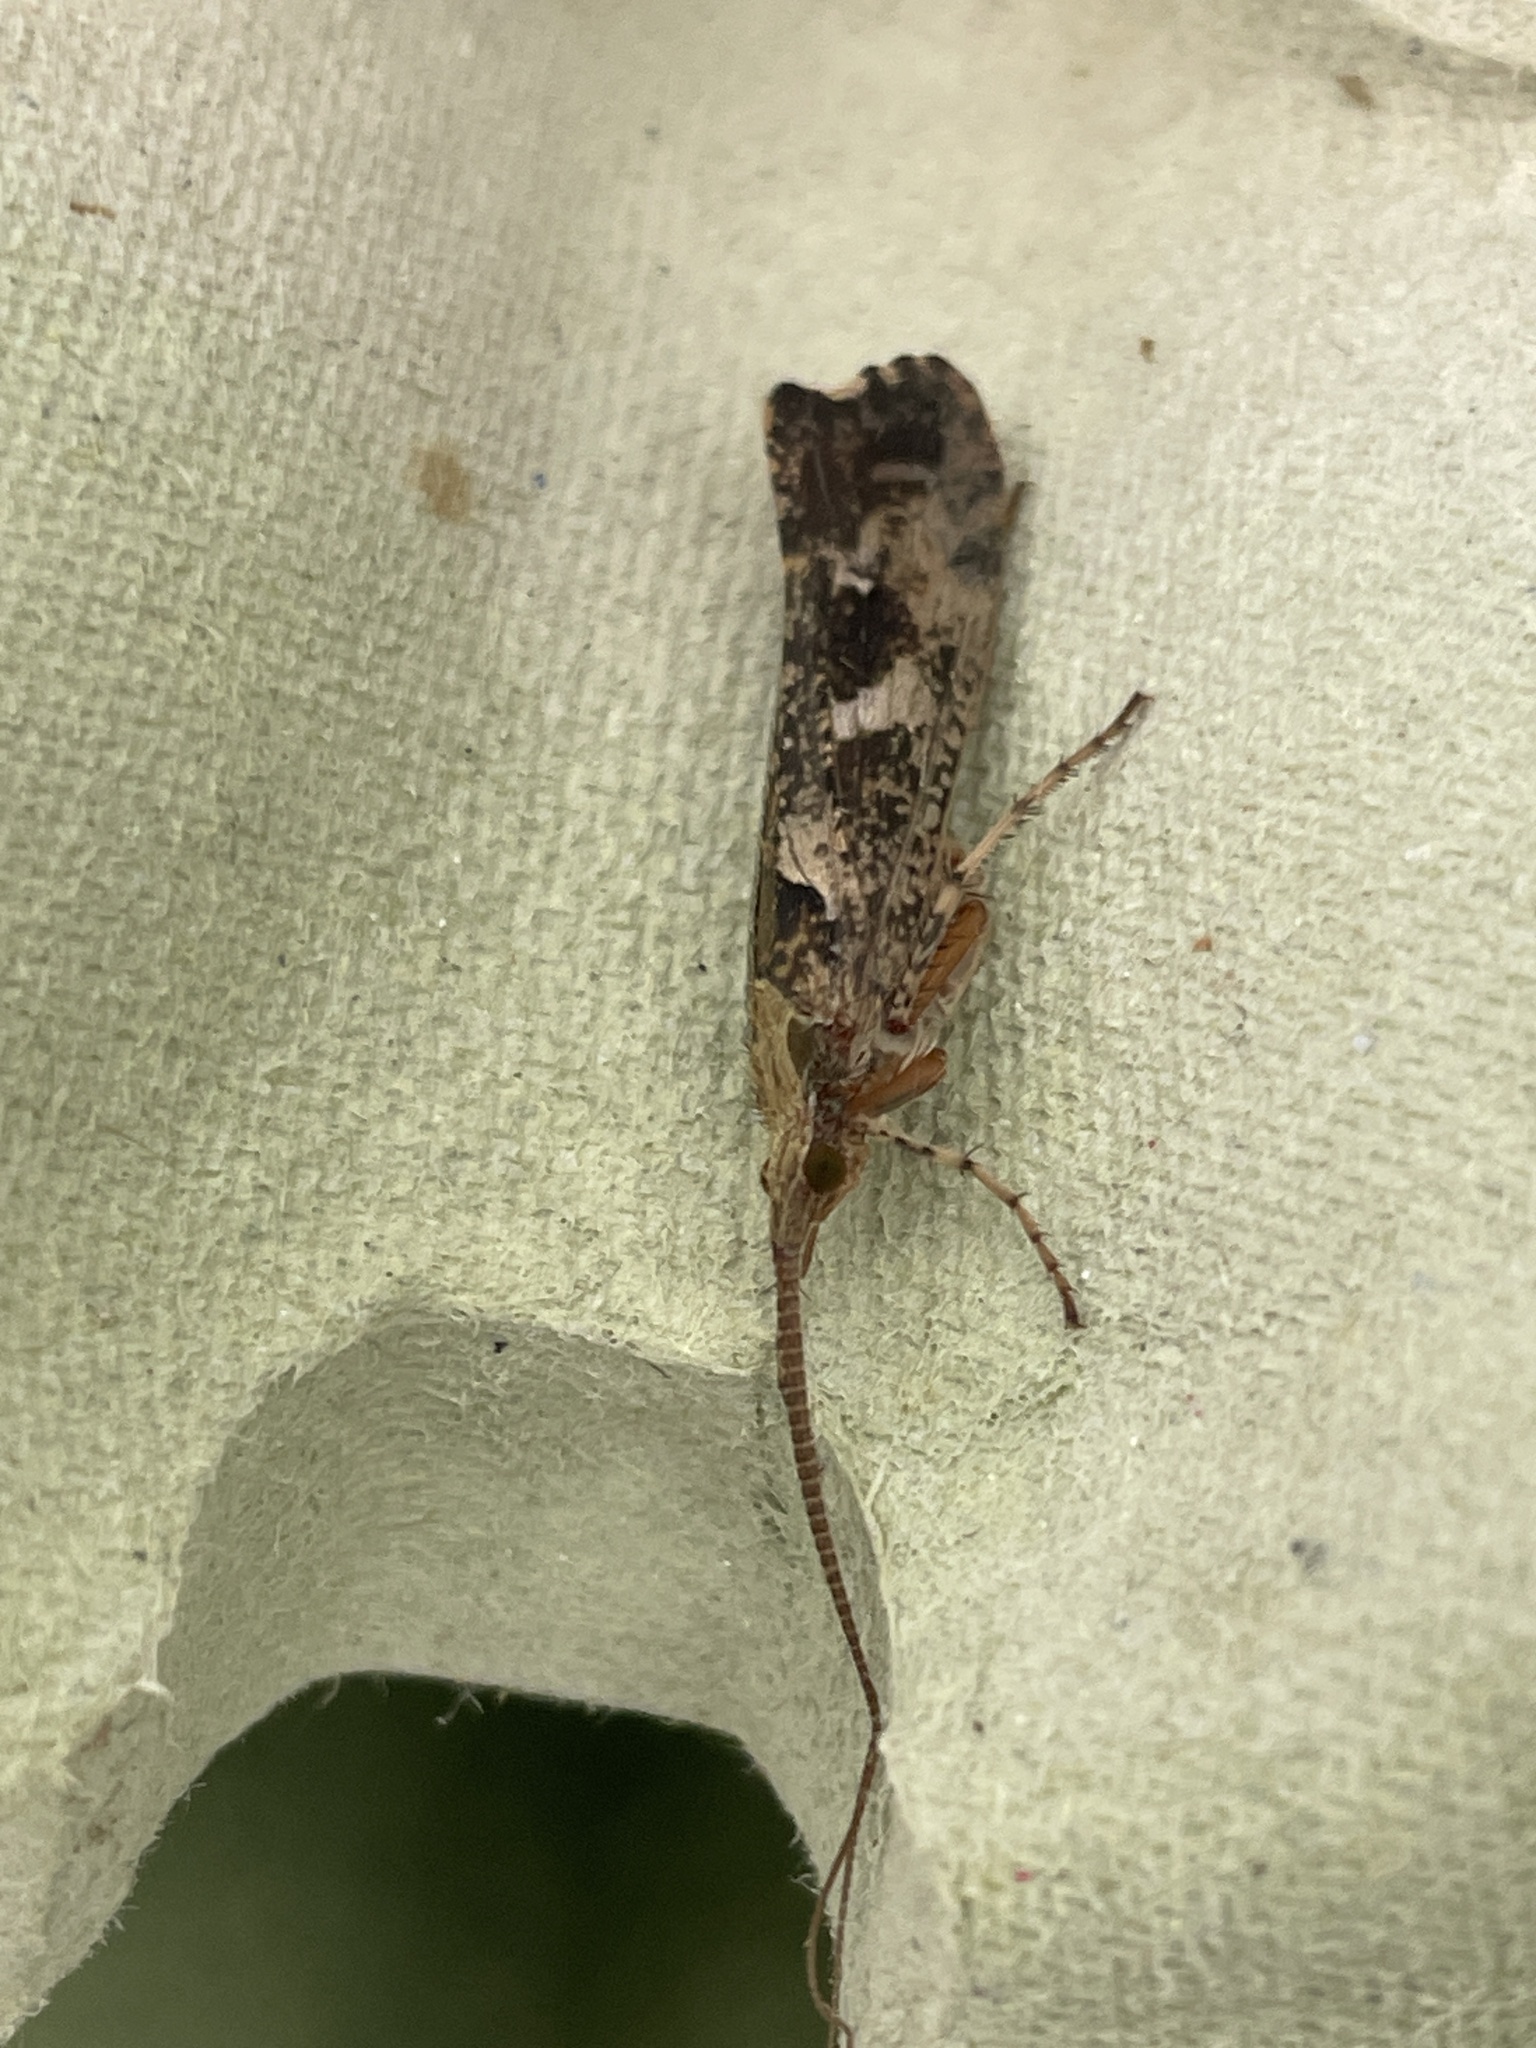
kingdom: Animalia
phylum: Arthropoda
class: Insecta
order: Trichoptera
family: Limnephilidae
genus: Glyphotaelius
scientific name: Glyphotaelius pellucidus
